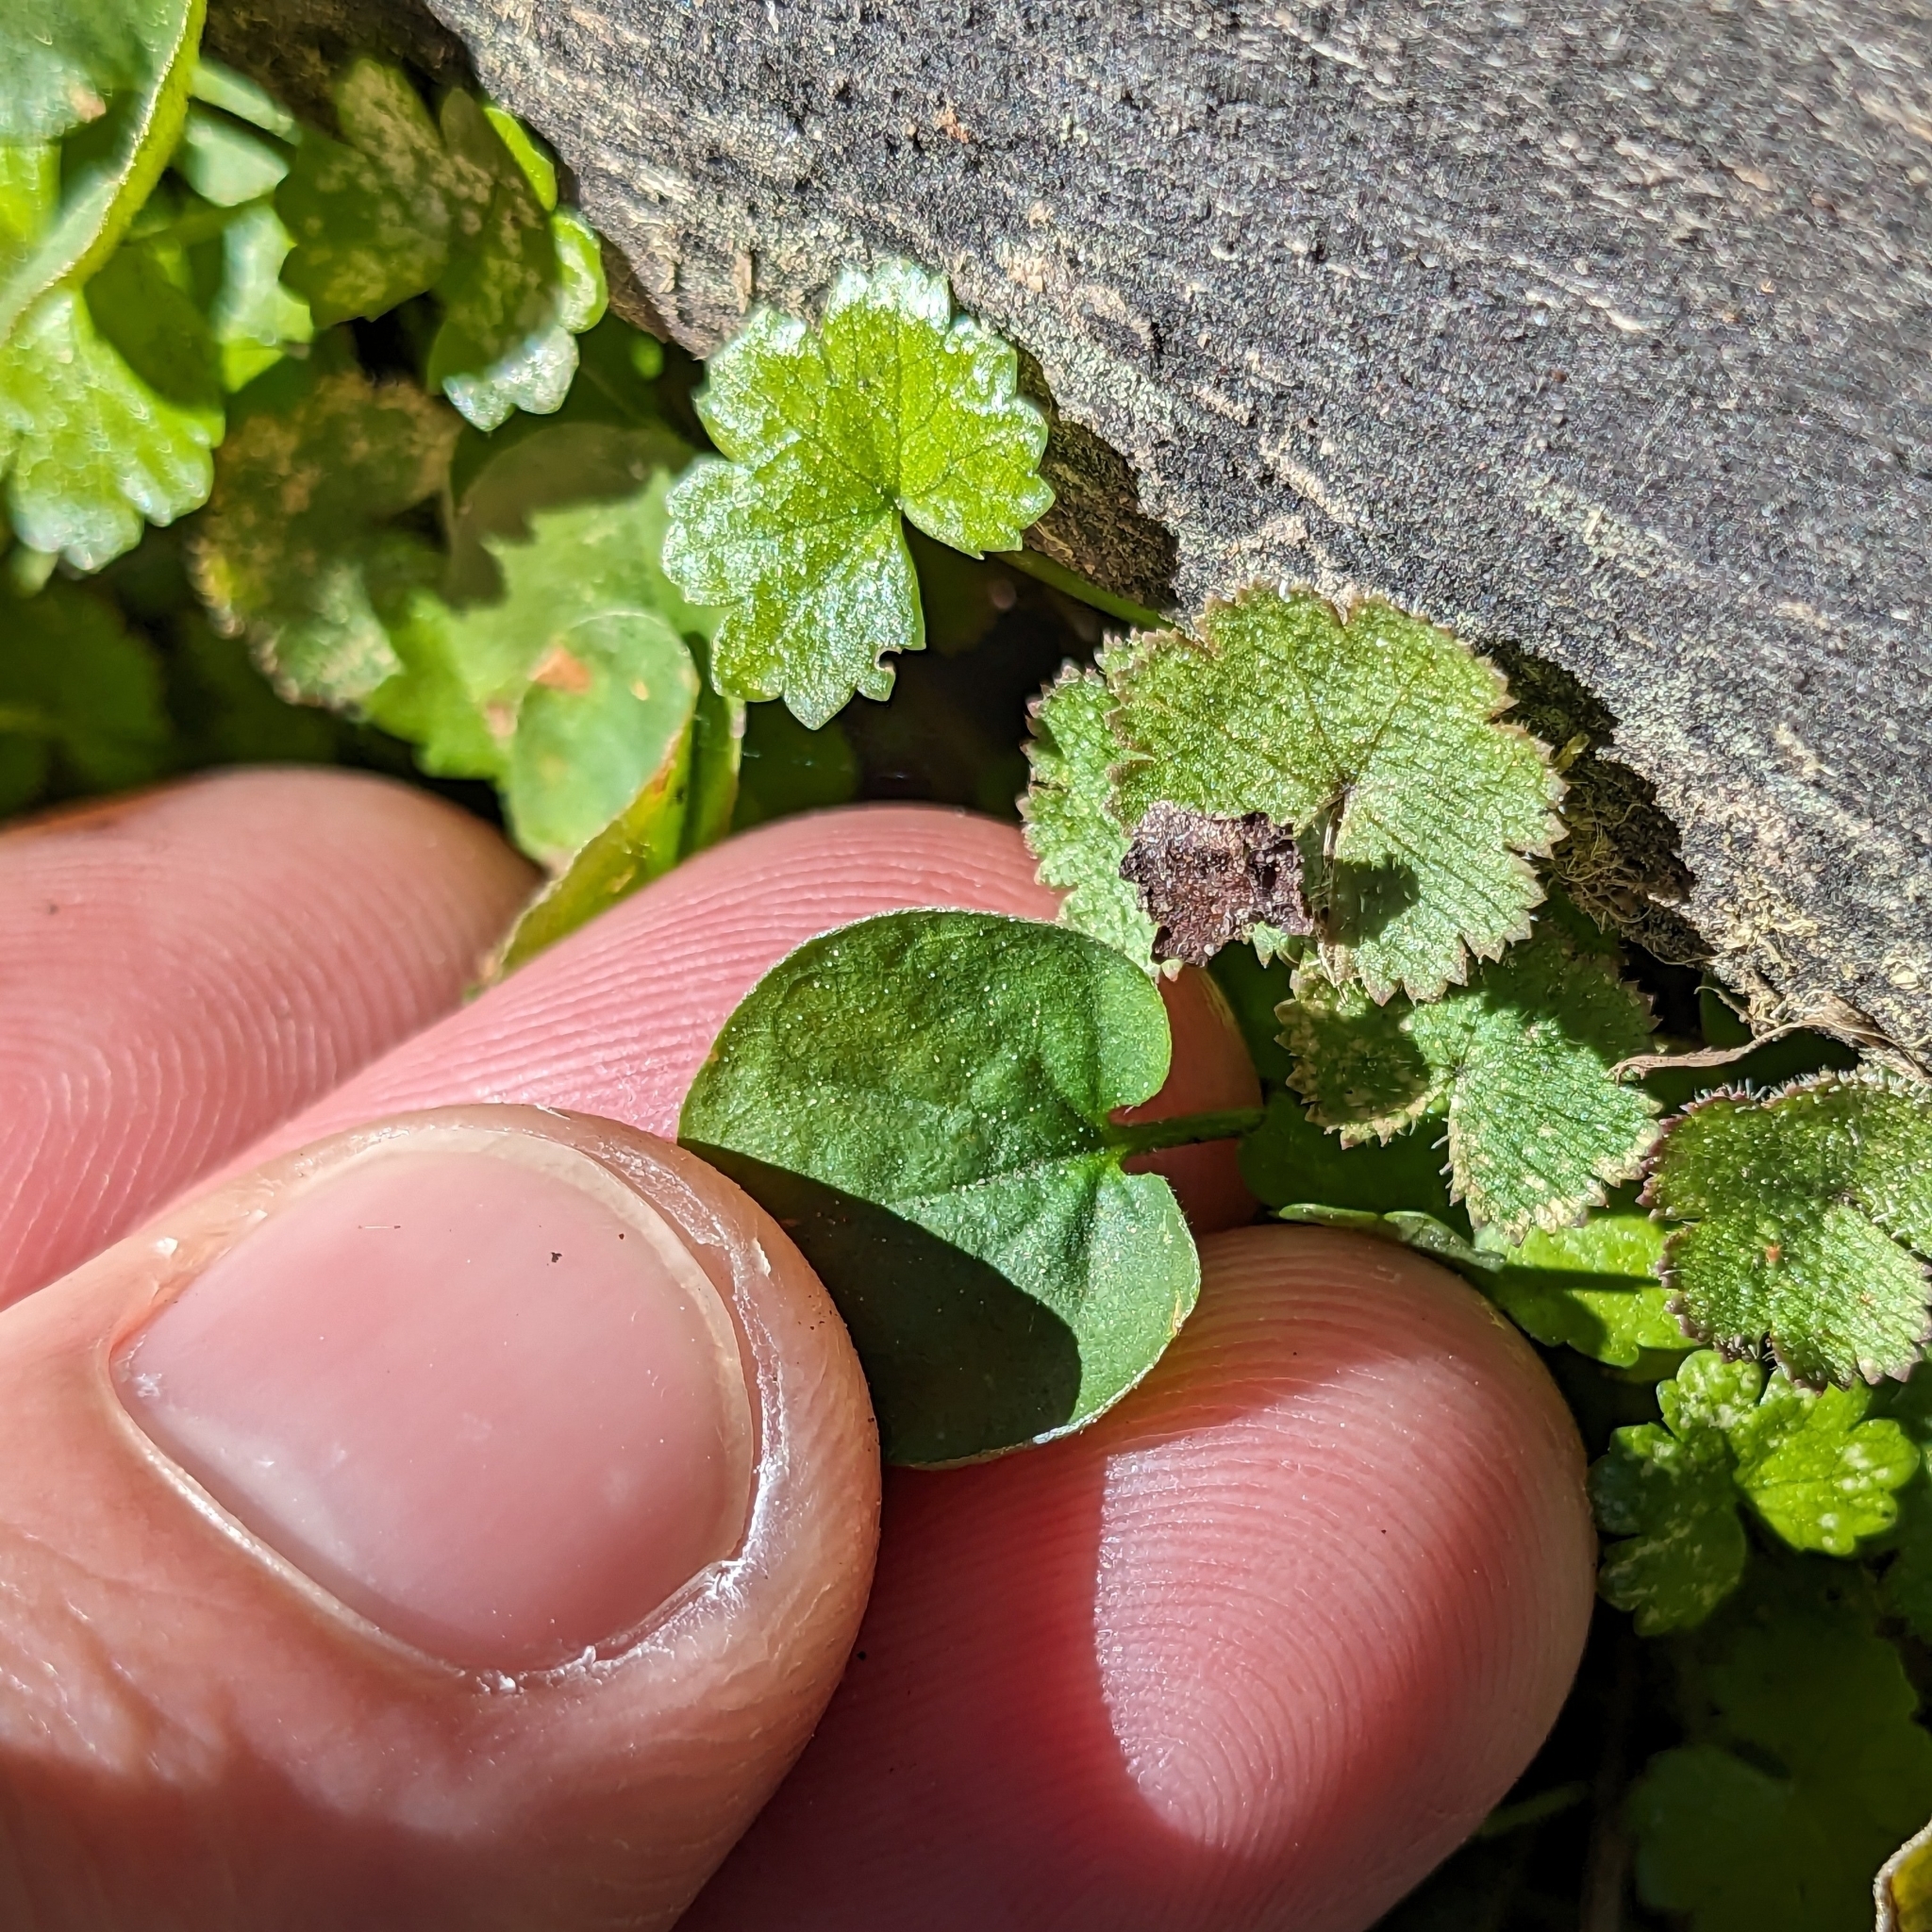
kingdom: Plantae
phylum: Tracheophyta
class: Magnoliopsida
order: Solanales
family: Convolvulaceae
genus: Dichondra
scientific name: Dichondra repens
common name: Kidneyweed
